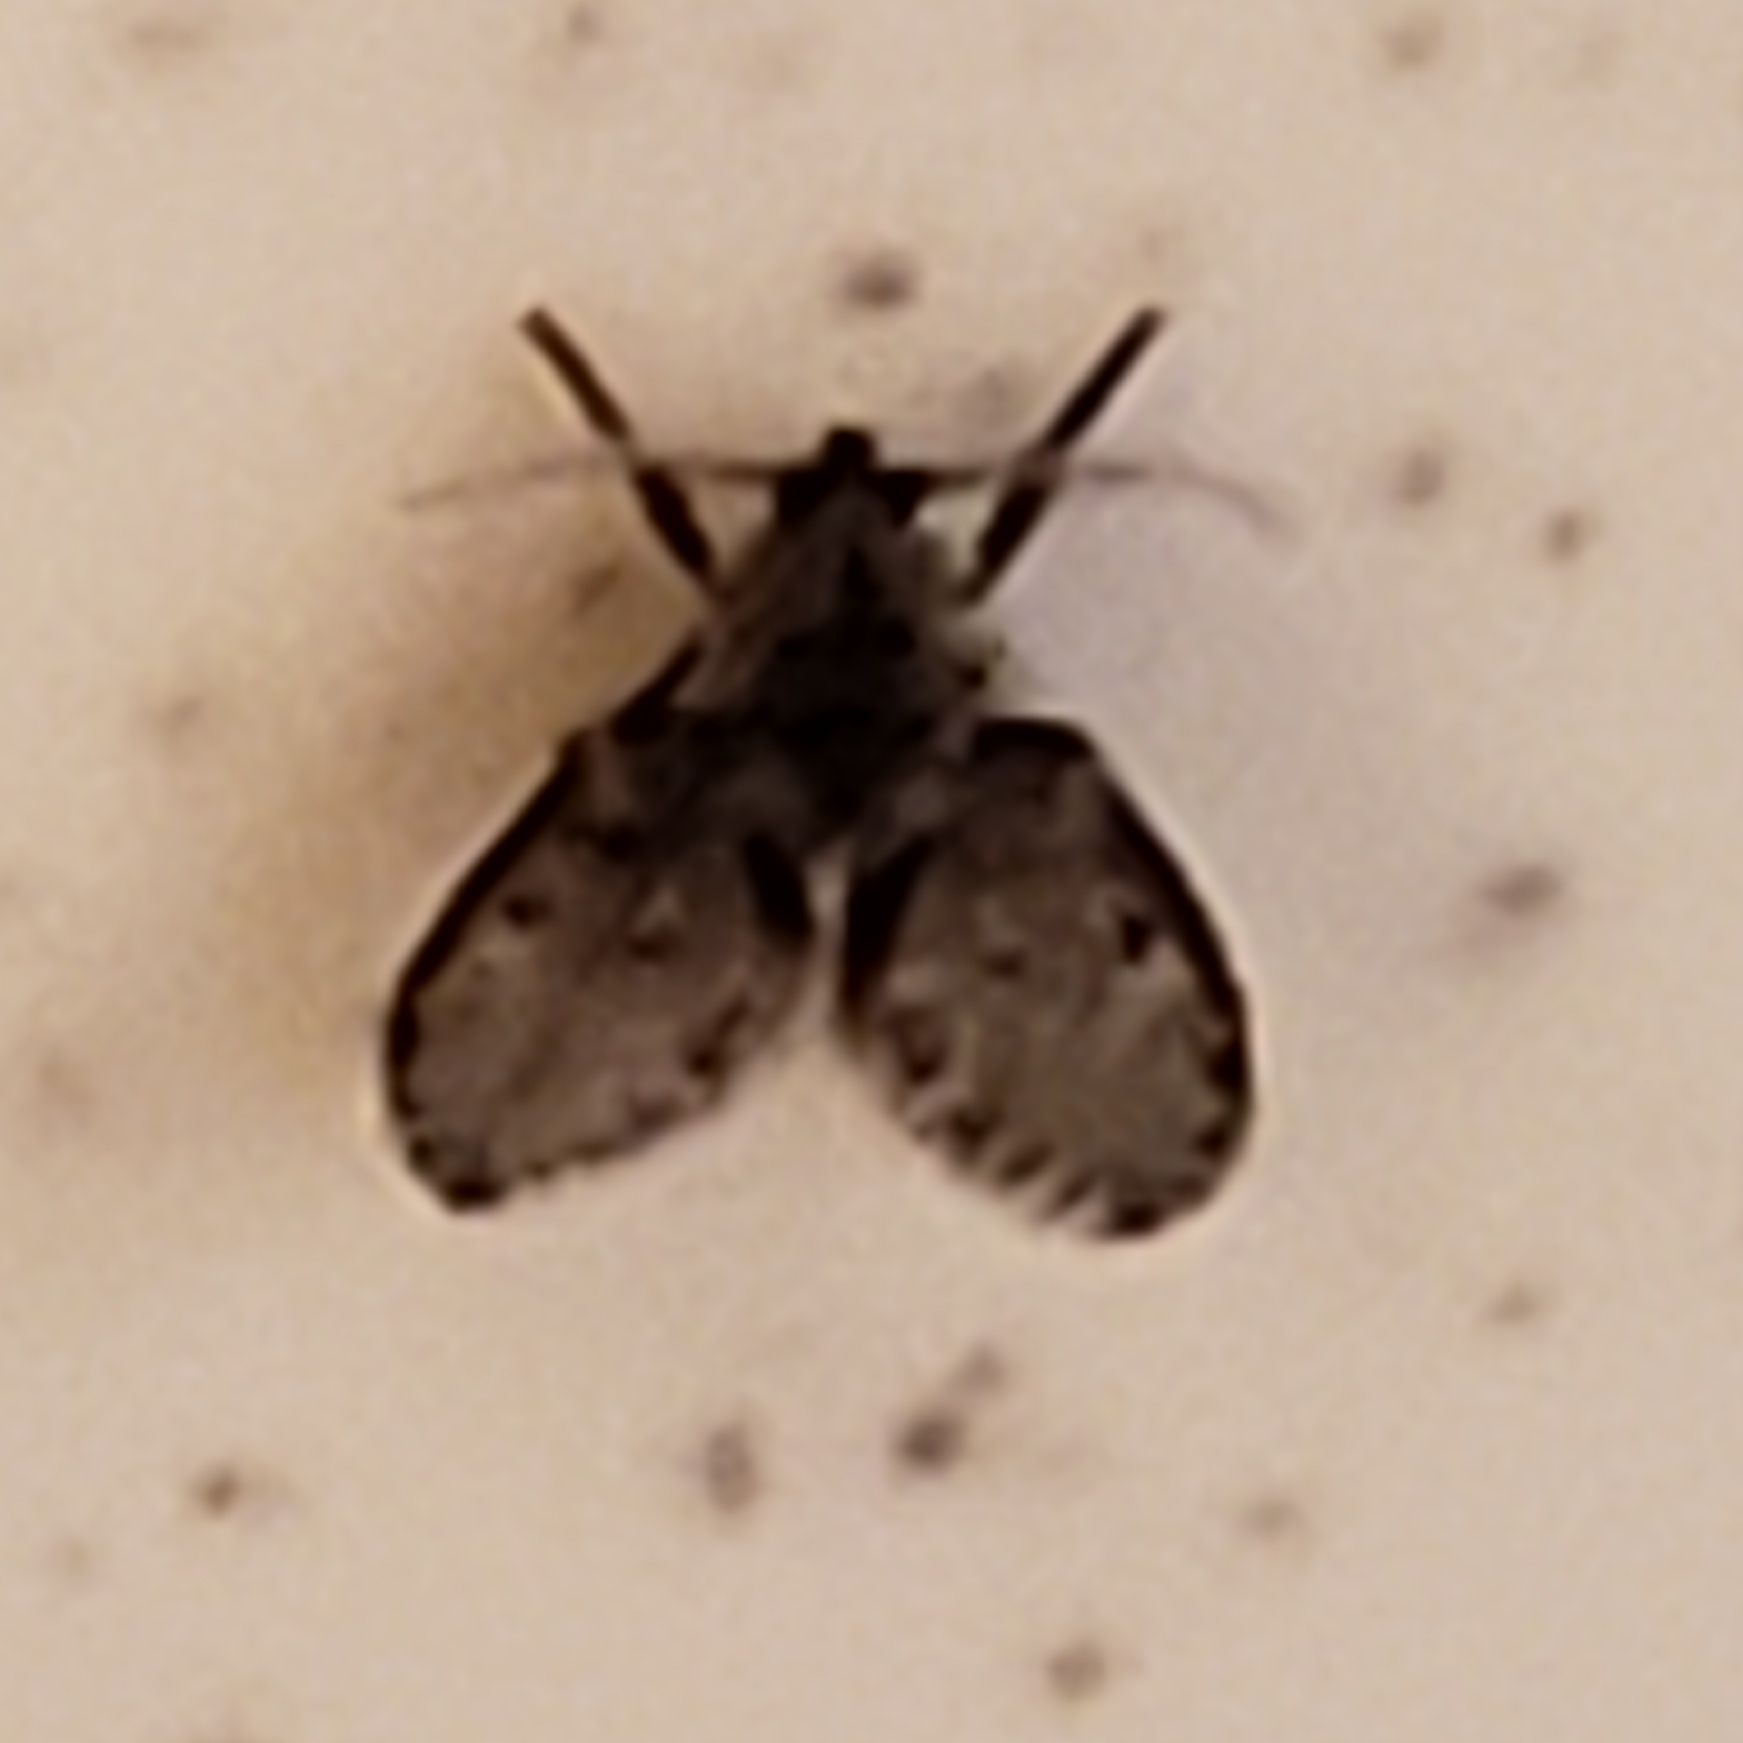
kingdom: Animalia
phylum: Arthropoda
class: Insecta
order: Diptera
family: Psychodidae
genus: Clogmia
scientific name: Clogmia albipunctatus
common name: White-spotted moth fly
